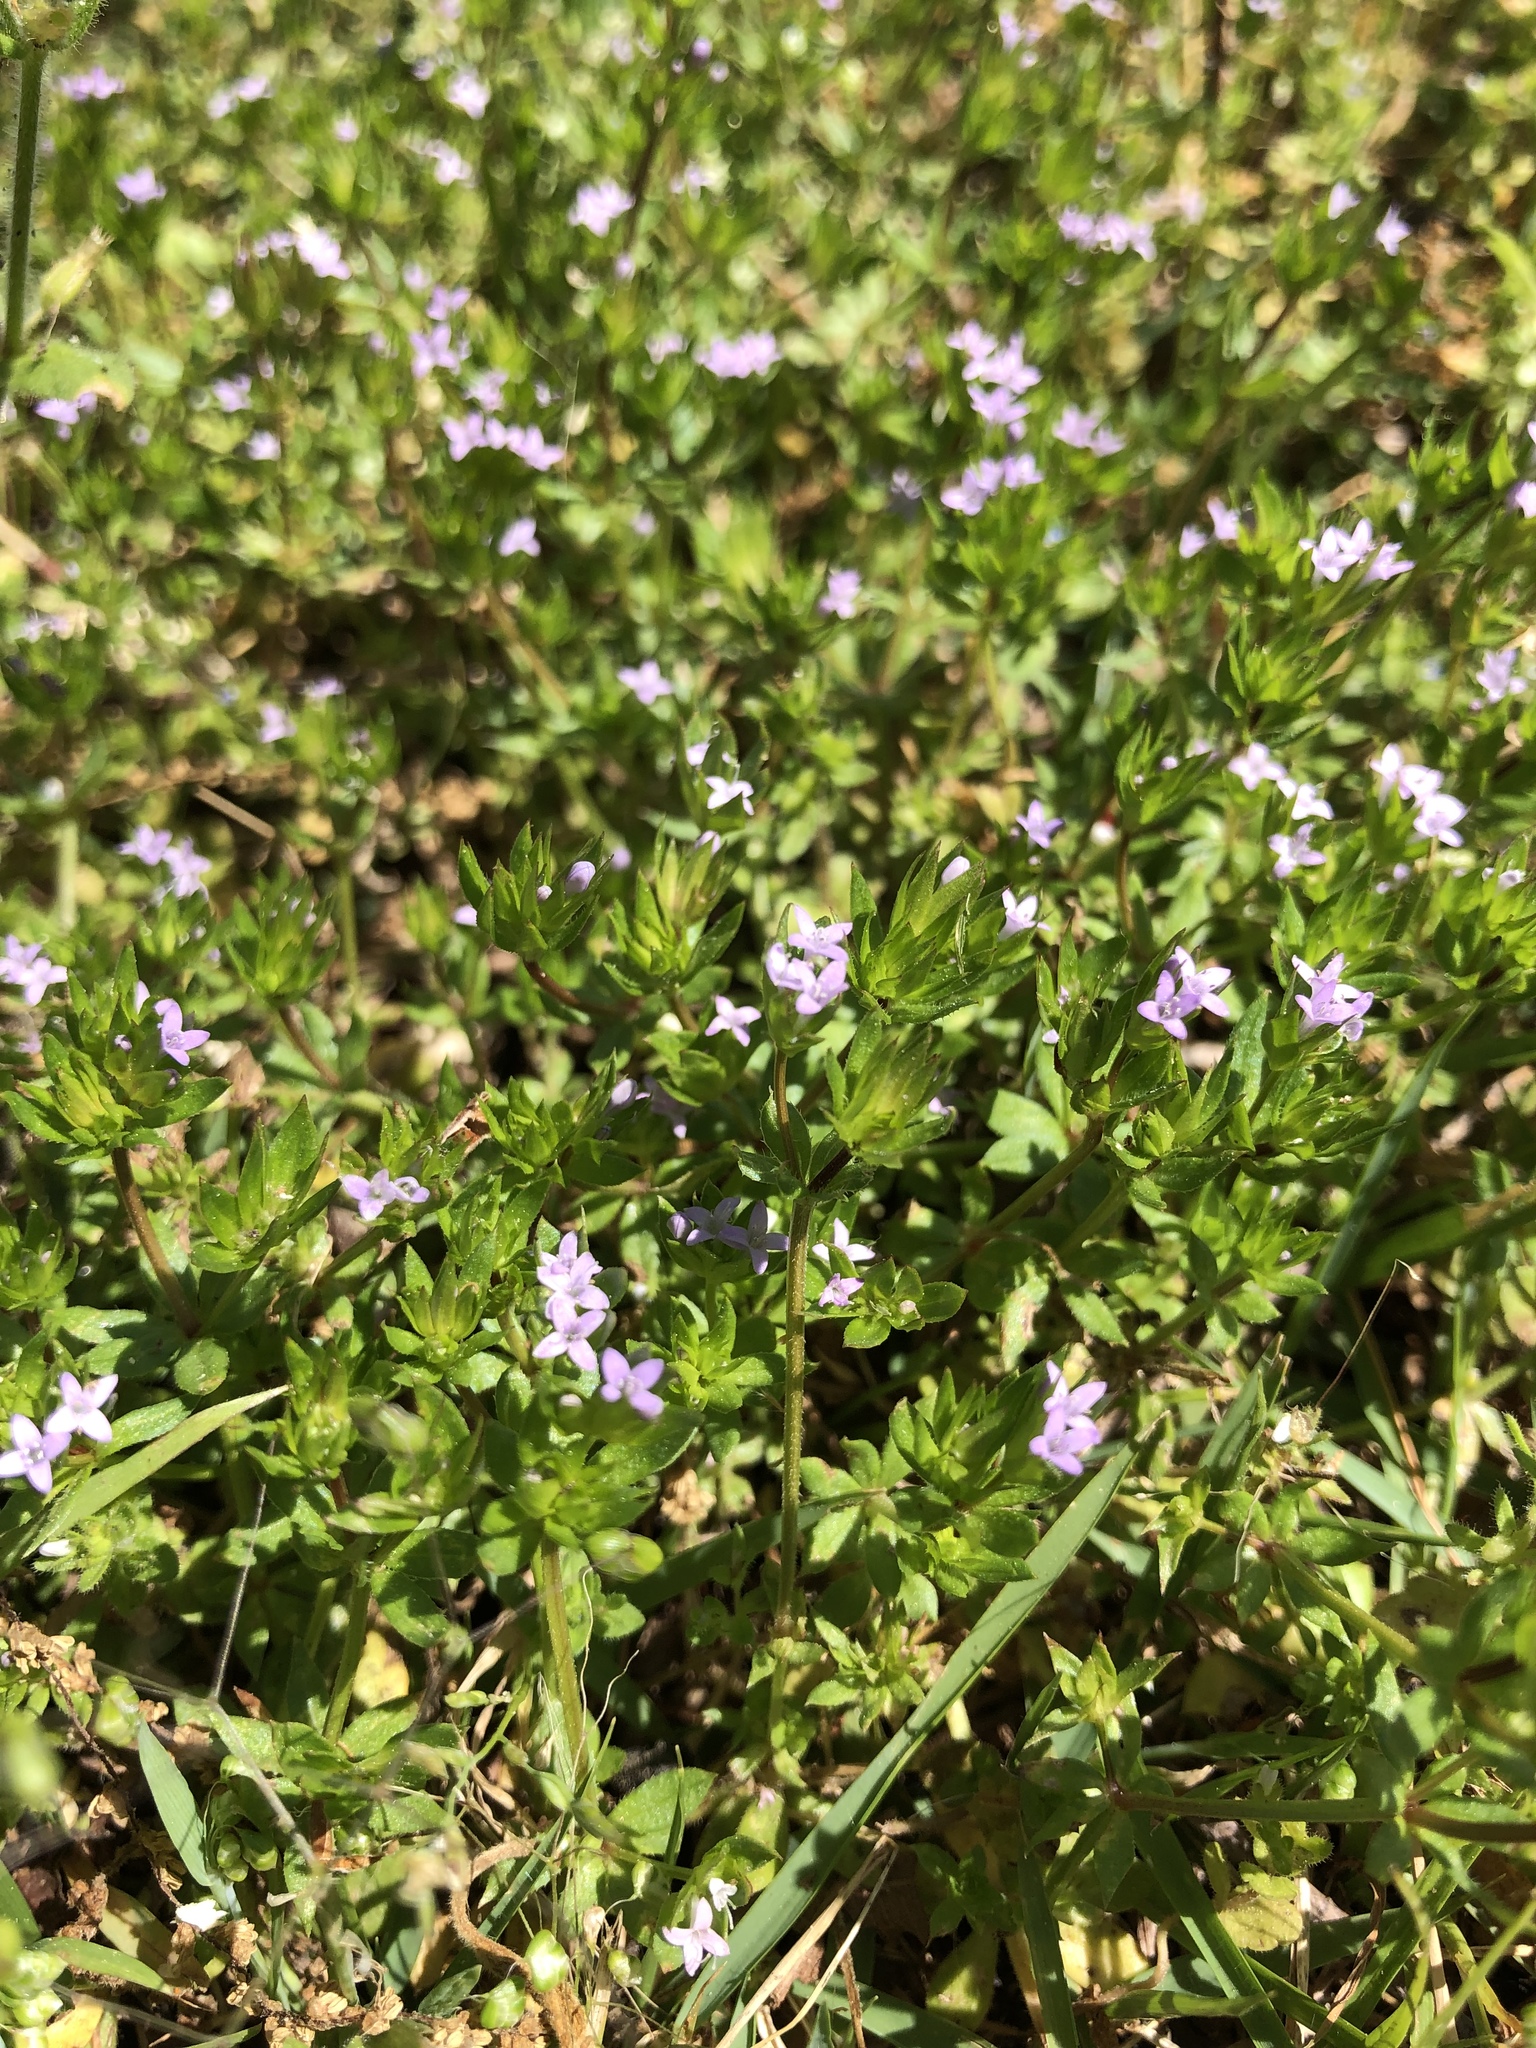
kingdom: Plantae
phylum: Tracheophyta
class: Magnoliopsida
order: Gentianales
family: Rubiaceae
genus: Sherardia
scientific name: Sherardia arvensis
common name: Field madder
